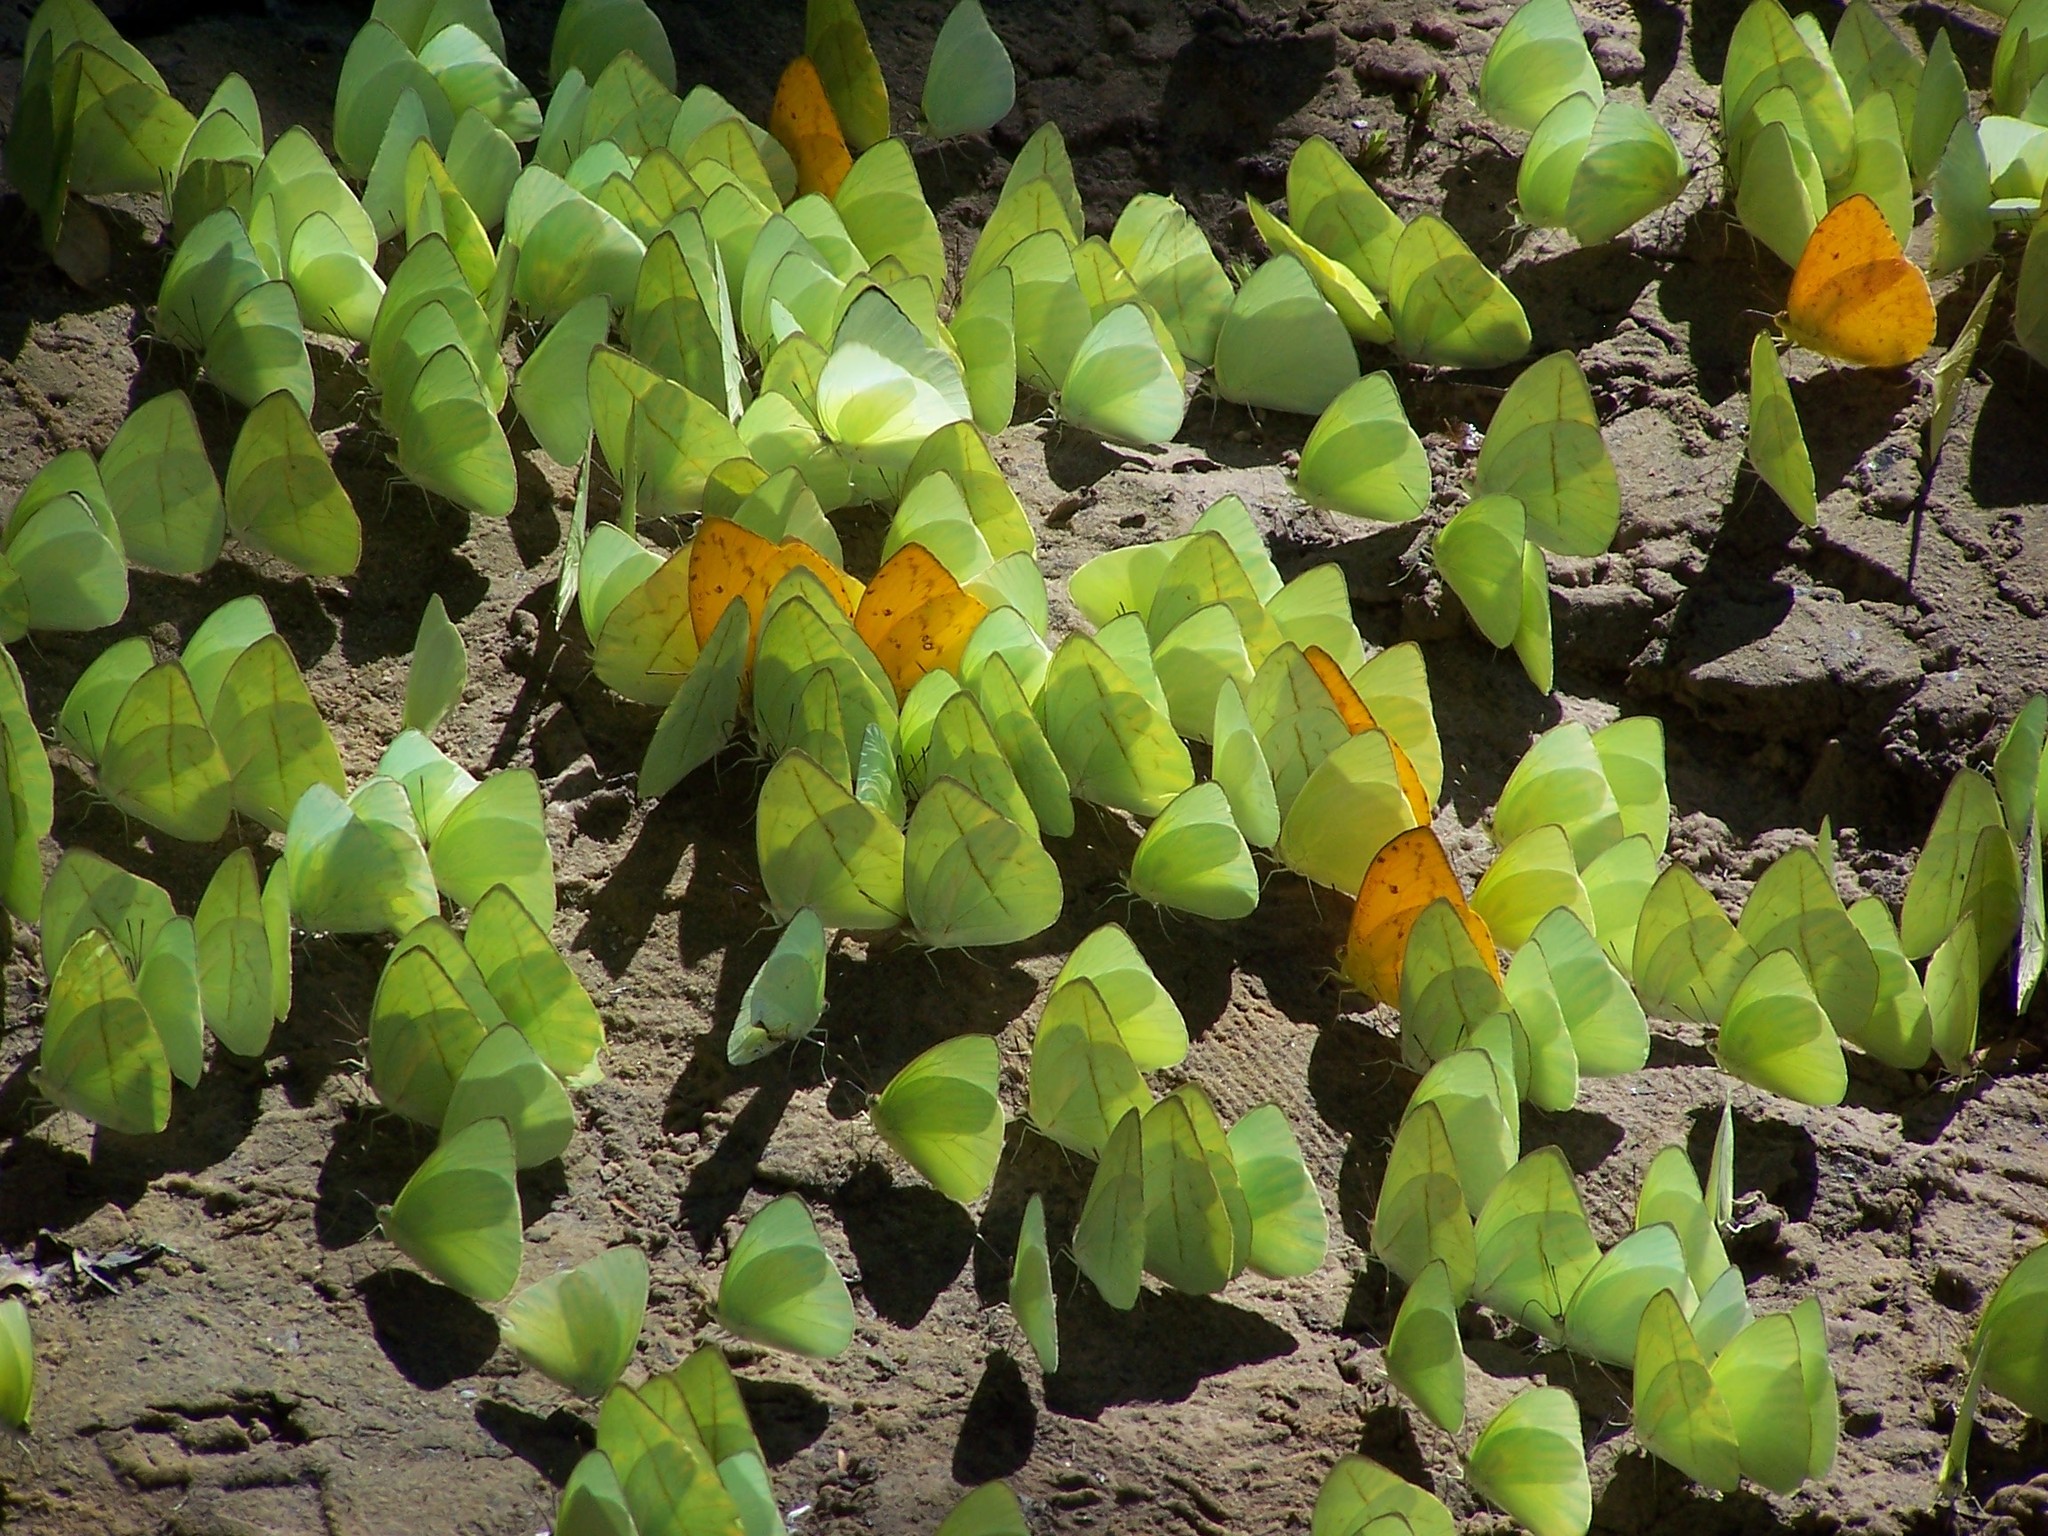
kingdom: Animalia
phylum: Arthropoda
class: Insecta
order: Lepidoptera
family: Pieridae
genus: Rhabdodryas
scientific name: Rhabdodryas trite
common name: Straight-lined sulphur
